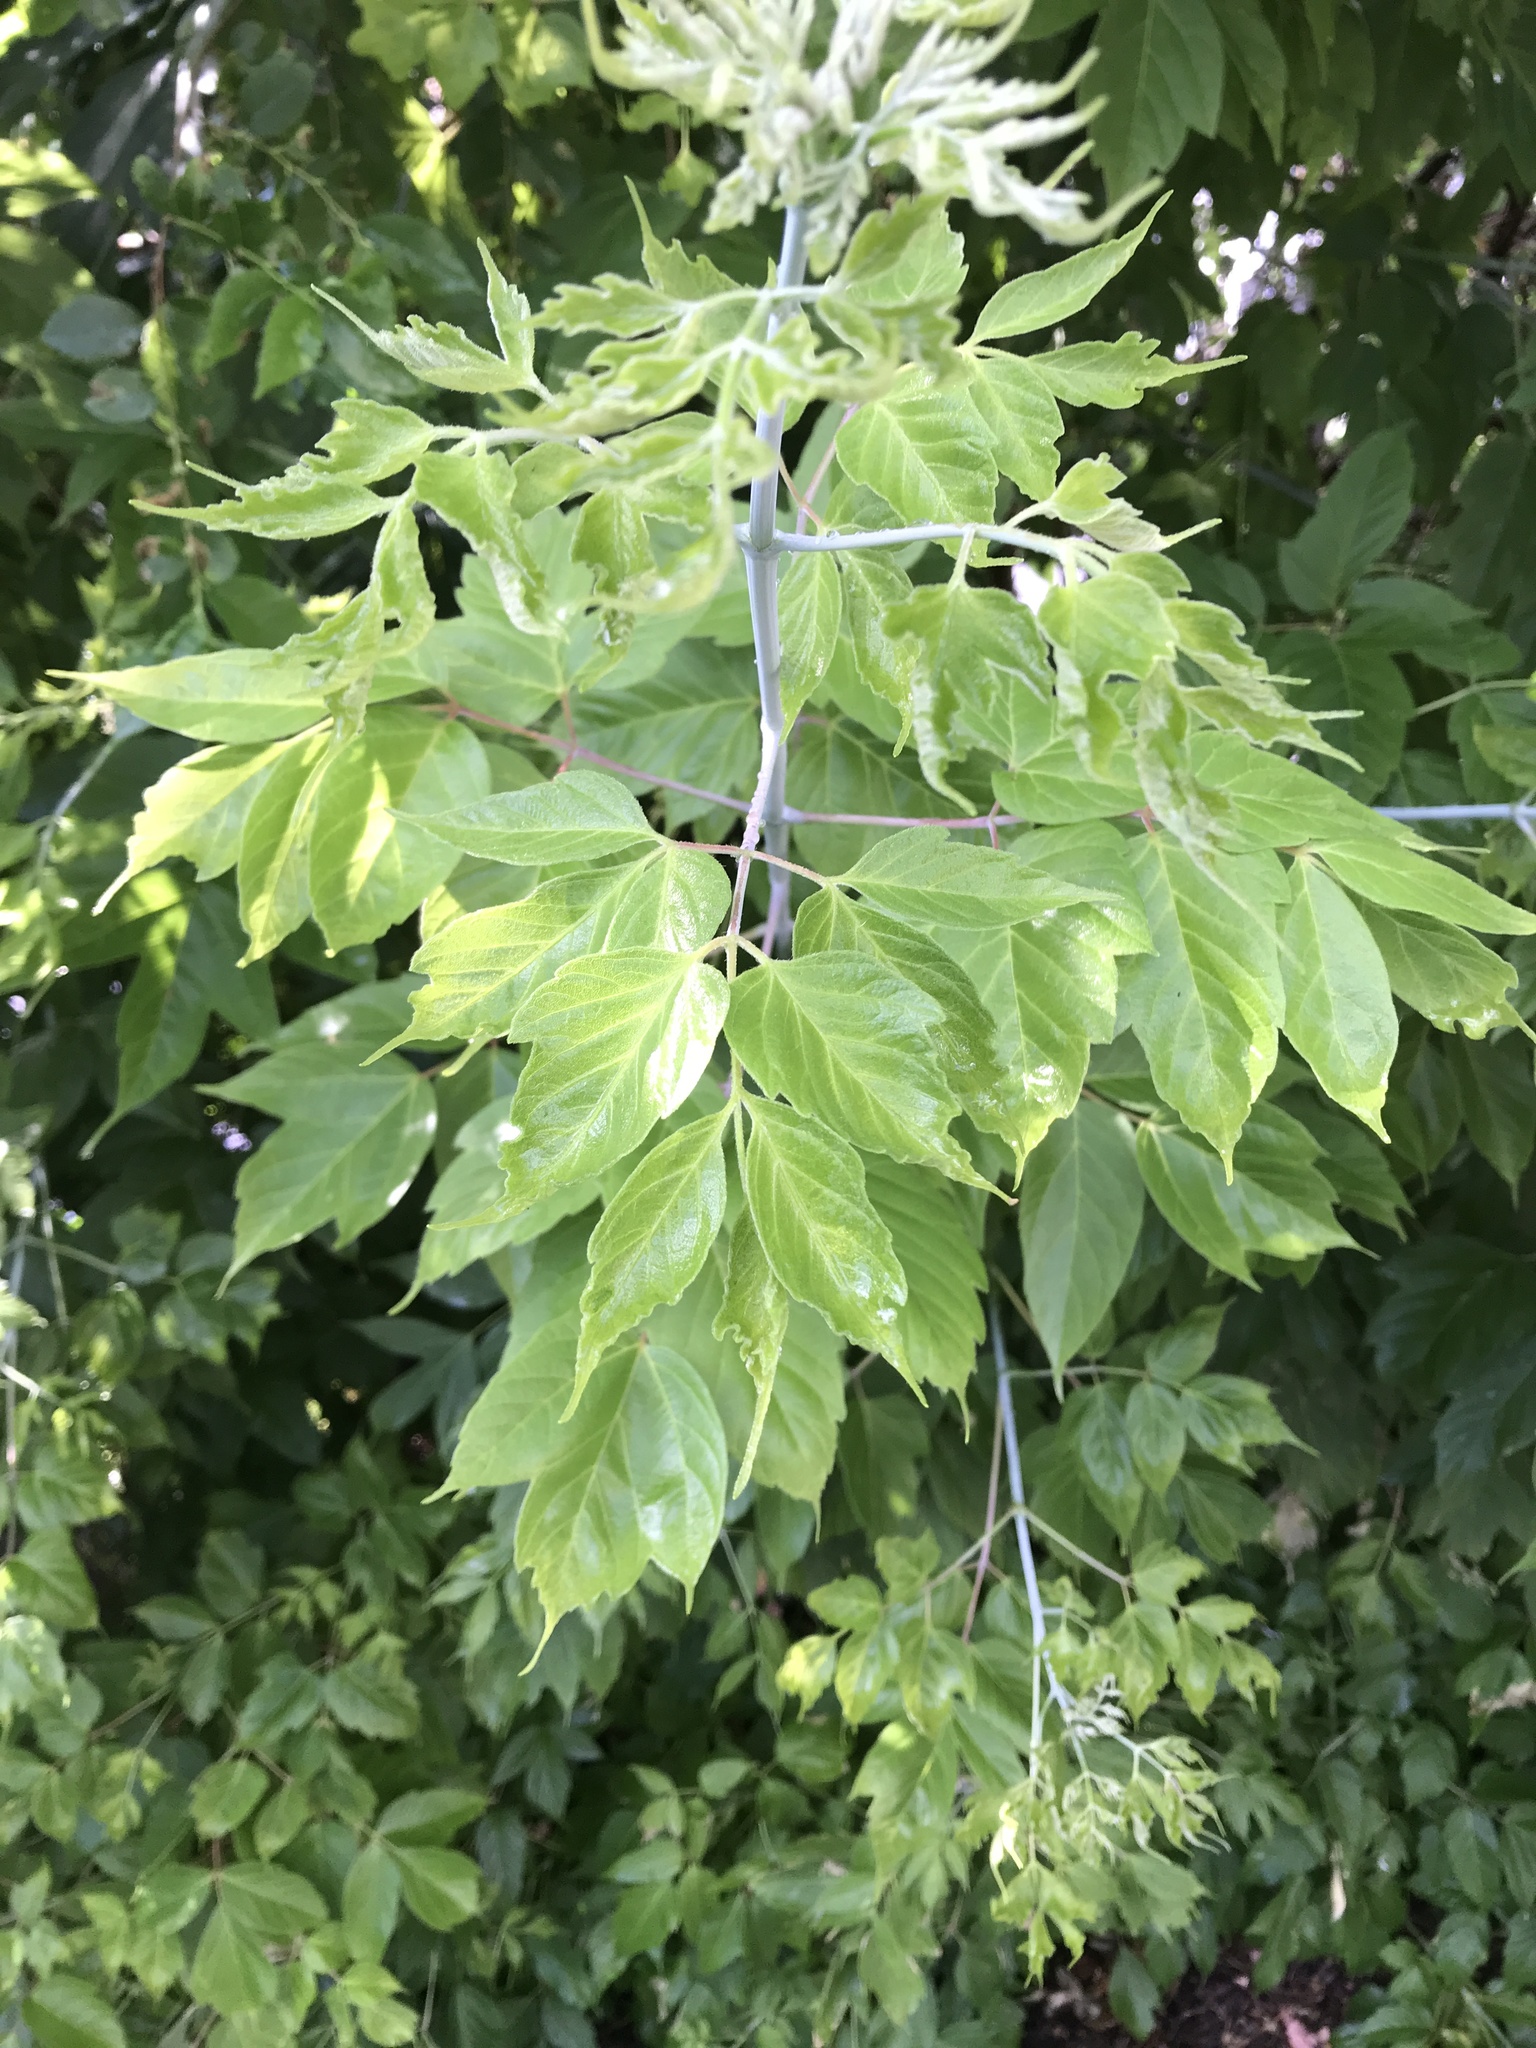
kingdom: Plantae
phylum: Tracheophyta
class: Magnoliopsida
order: Sapindales
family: Sapindaceae
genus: Acer
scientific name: Acer negundo
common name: Ashleaf maple
